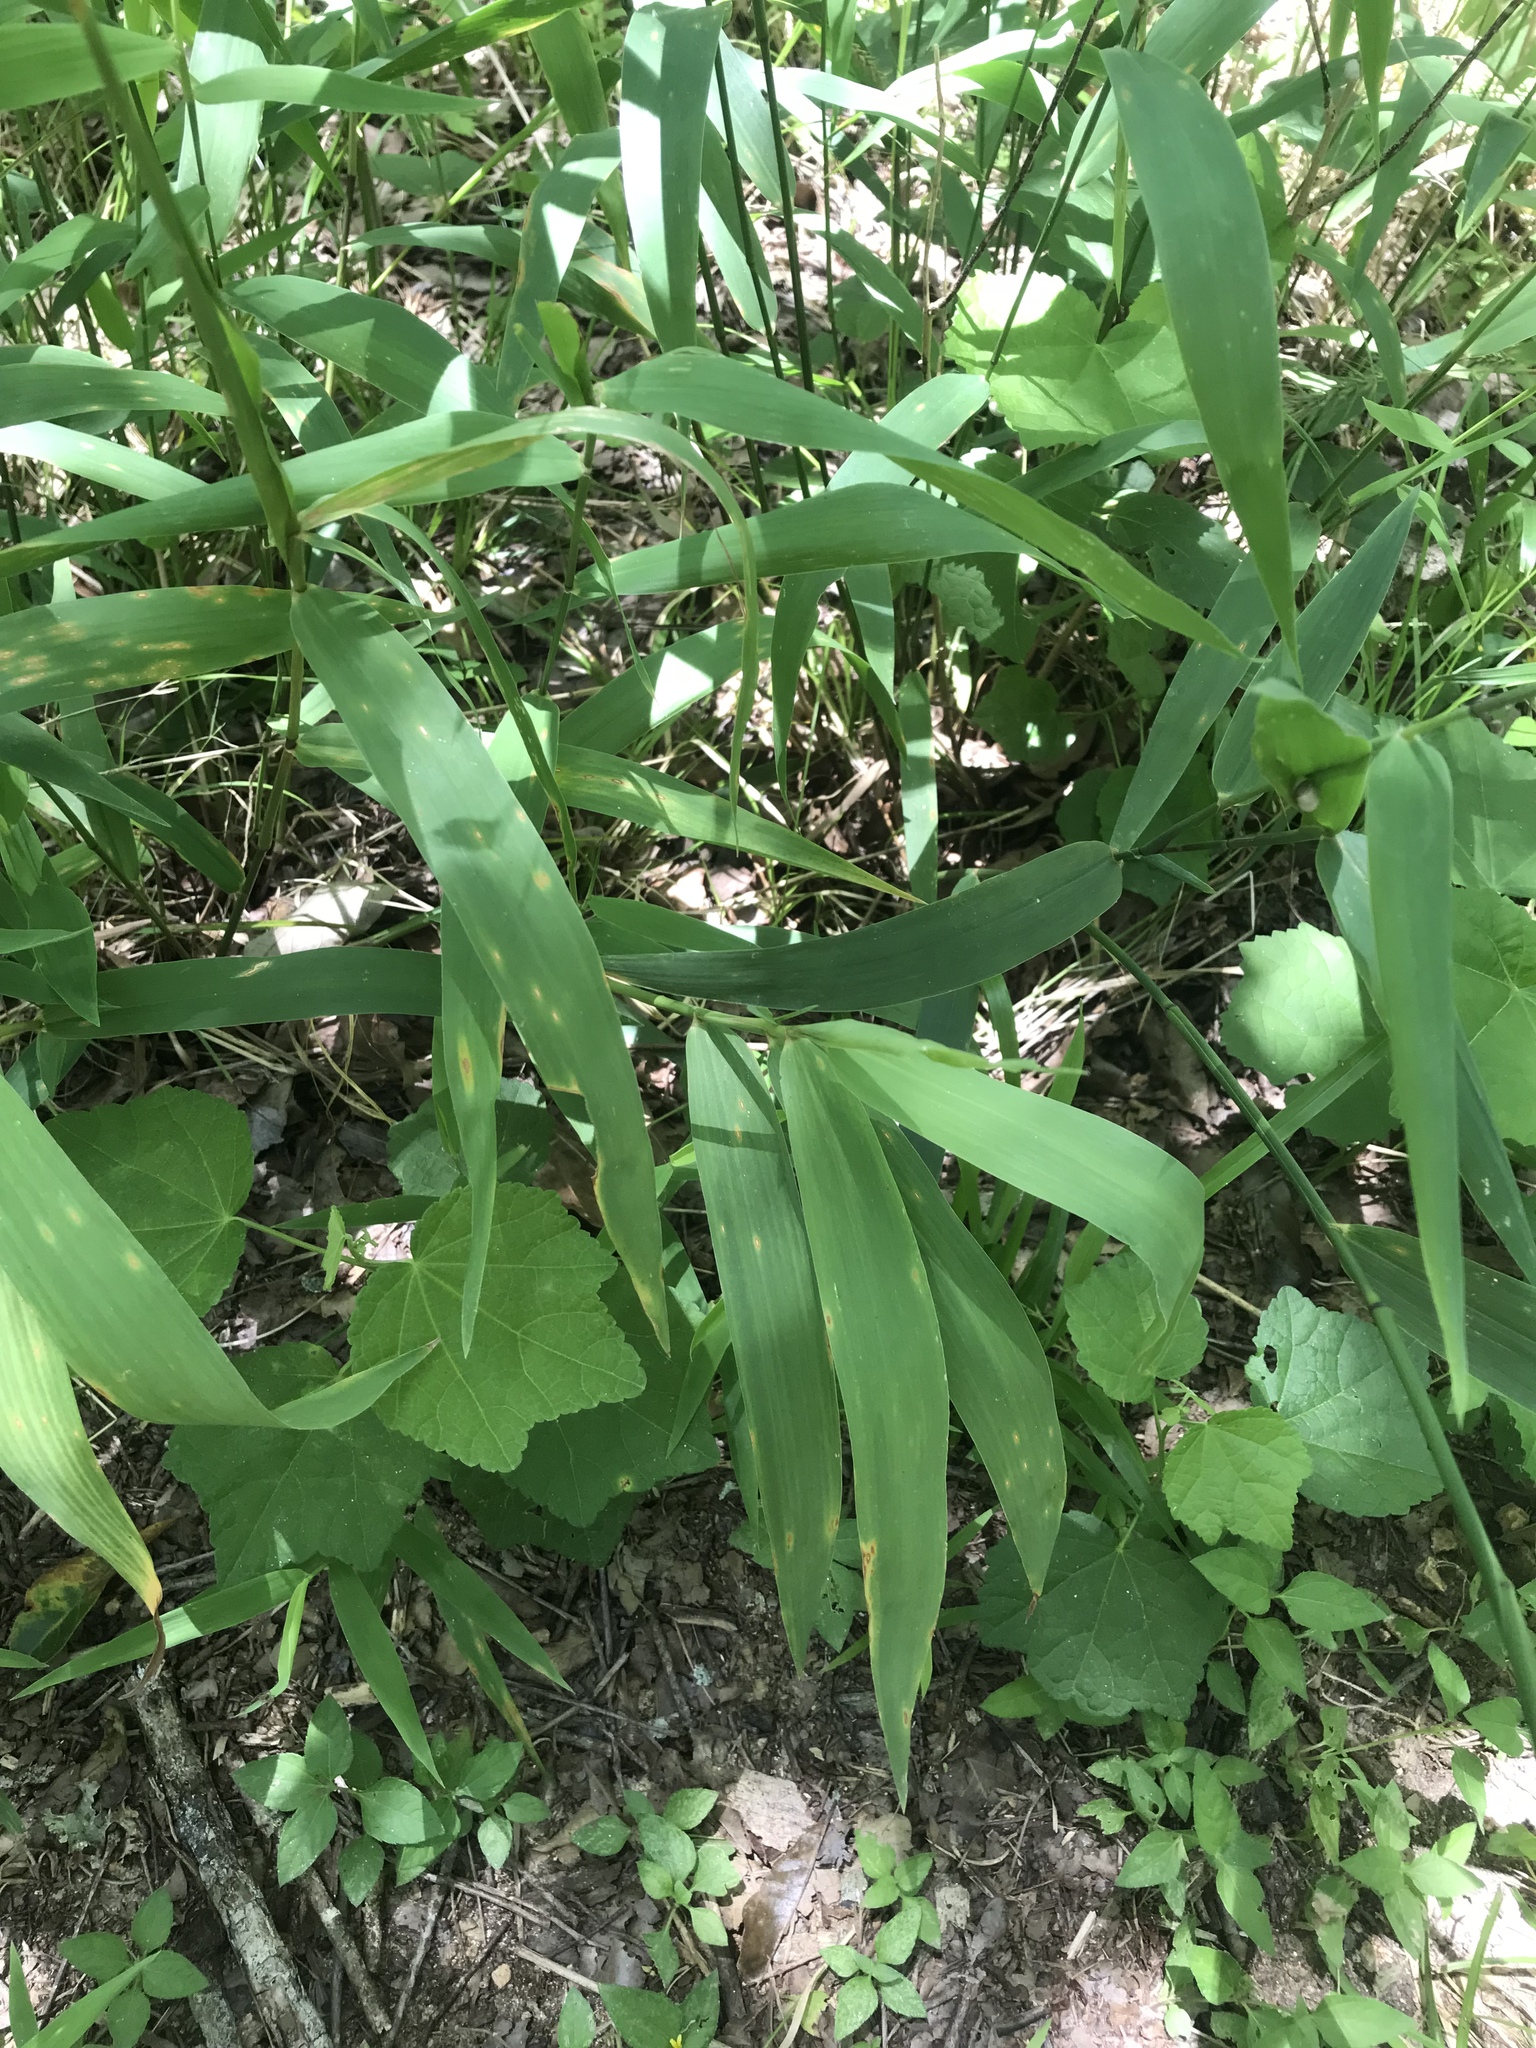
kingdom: Plantae
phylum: Tracheophyta
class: Liliopsida
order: Poales
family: Poaceae
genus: Chasmanthium
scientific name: Chasmanthium latifolium
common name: Broad-leaved chasmanthium
